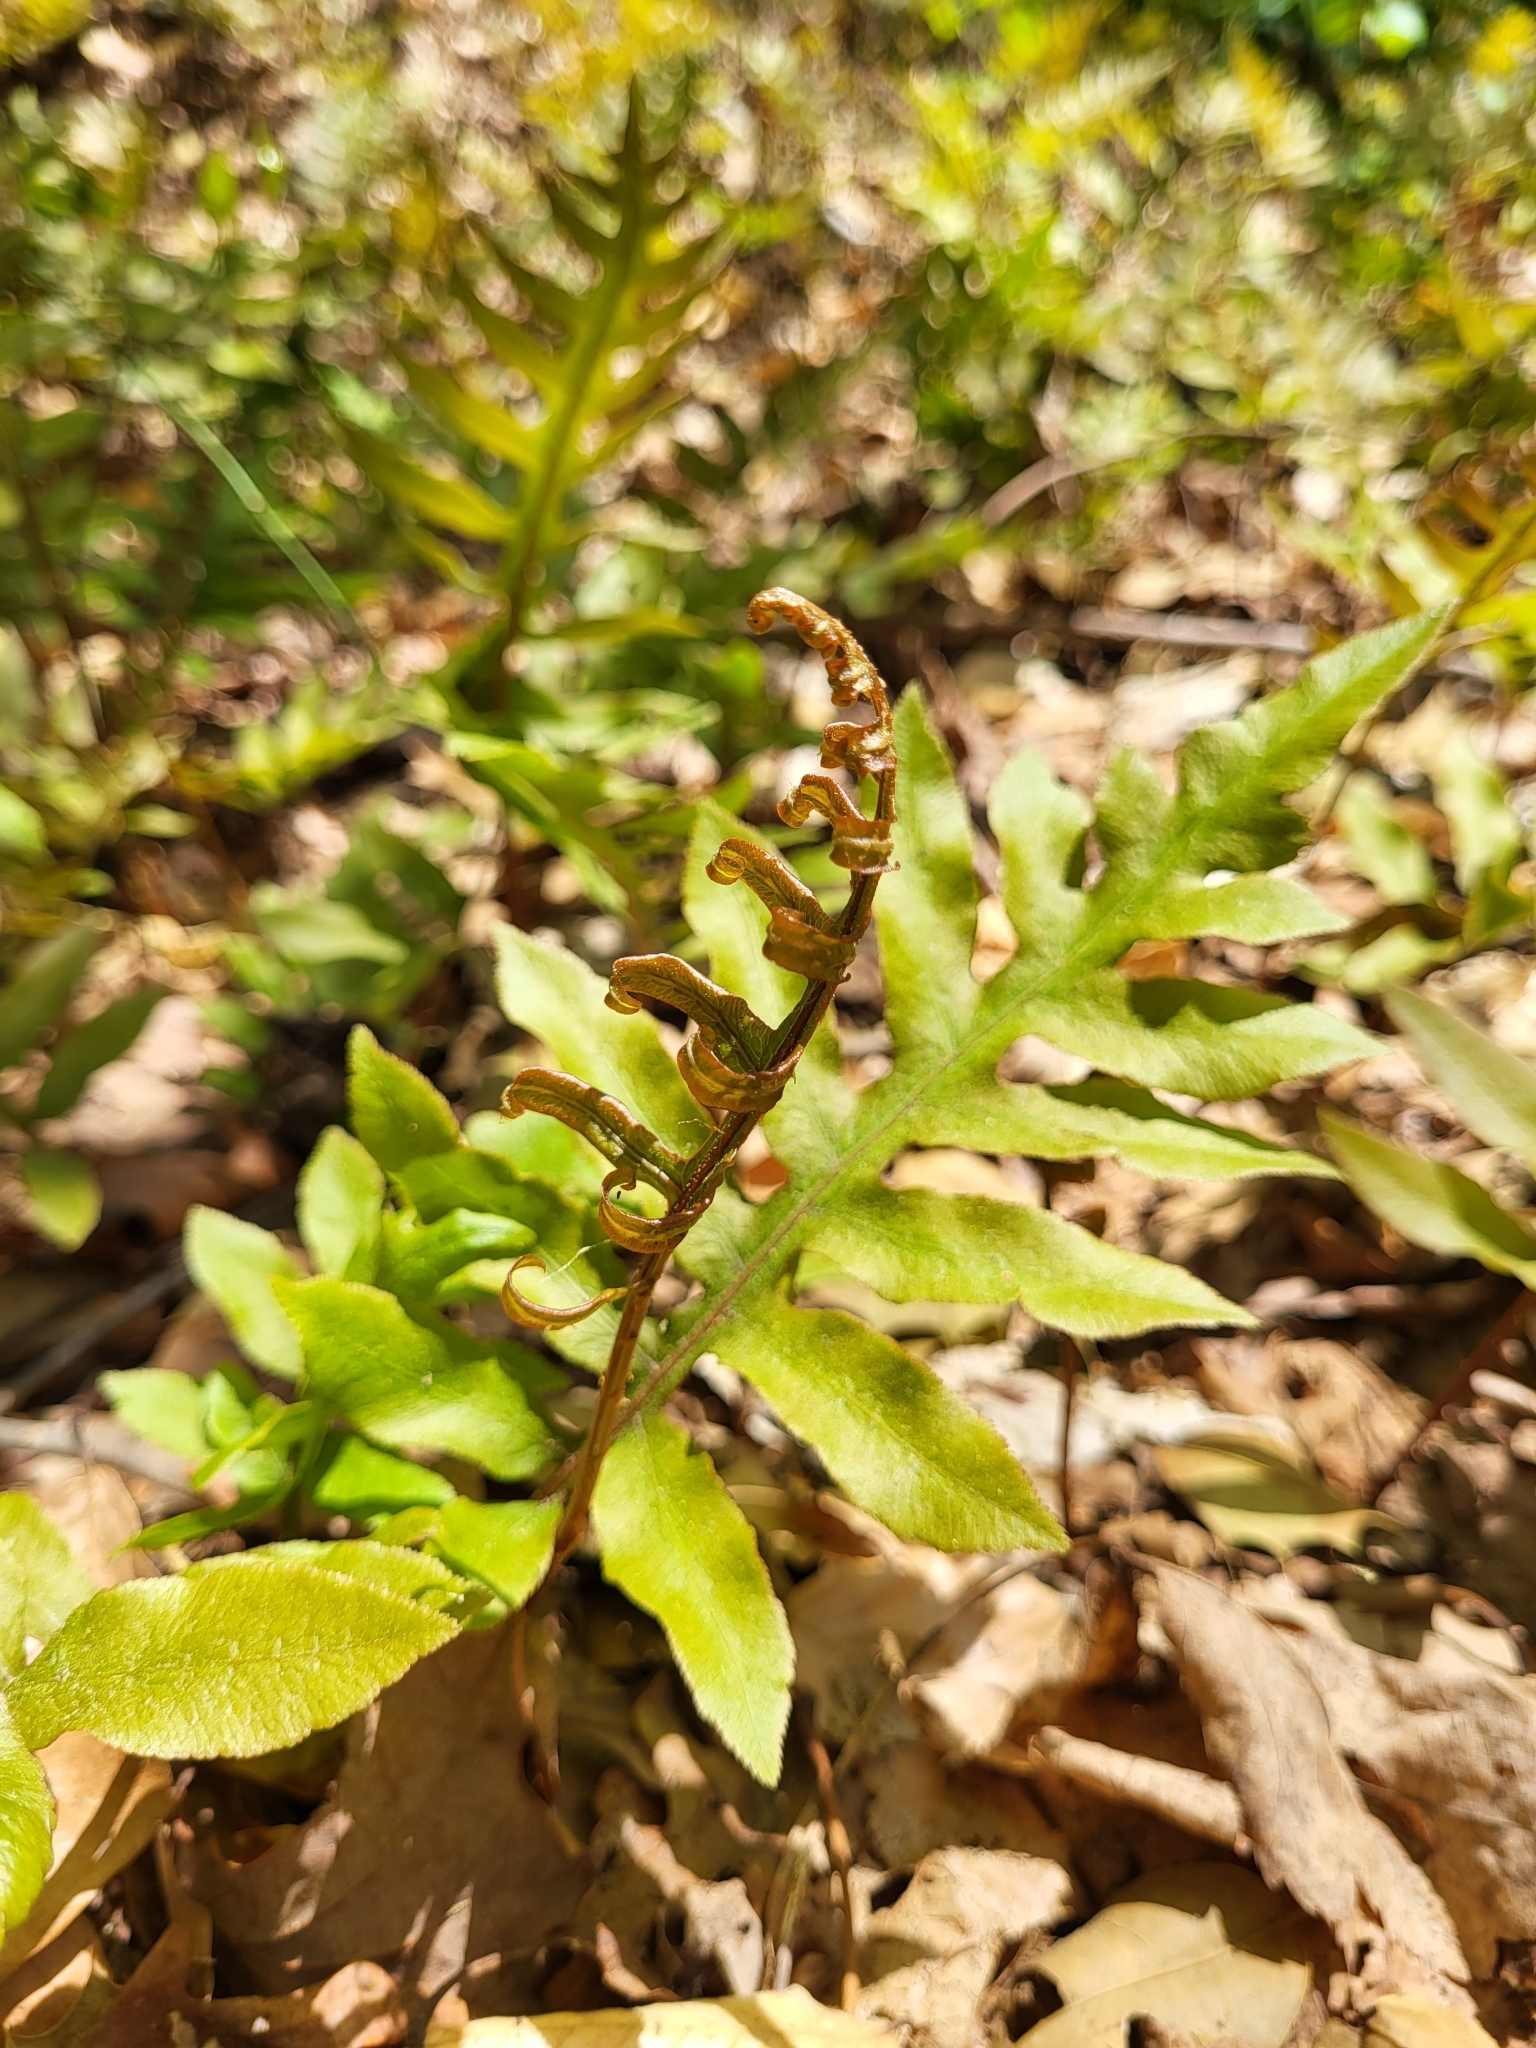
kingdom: Plantae
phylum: Tracheophyta
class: Polypodiopsida
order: Polypodiales
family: Blechnaceae
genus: Lorinseria
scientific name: Lorinseria areolata
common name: Dwarf chain fern
